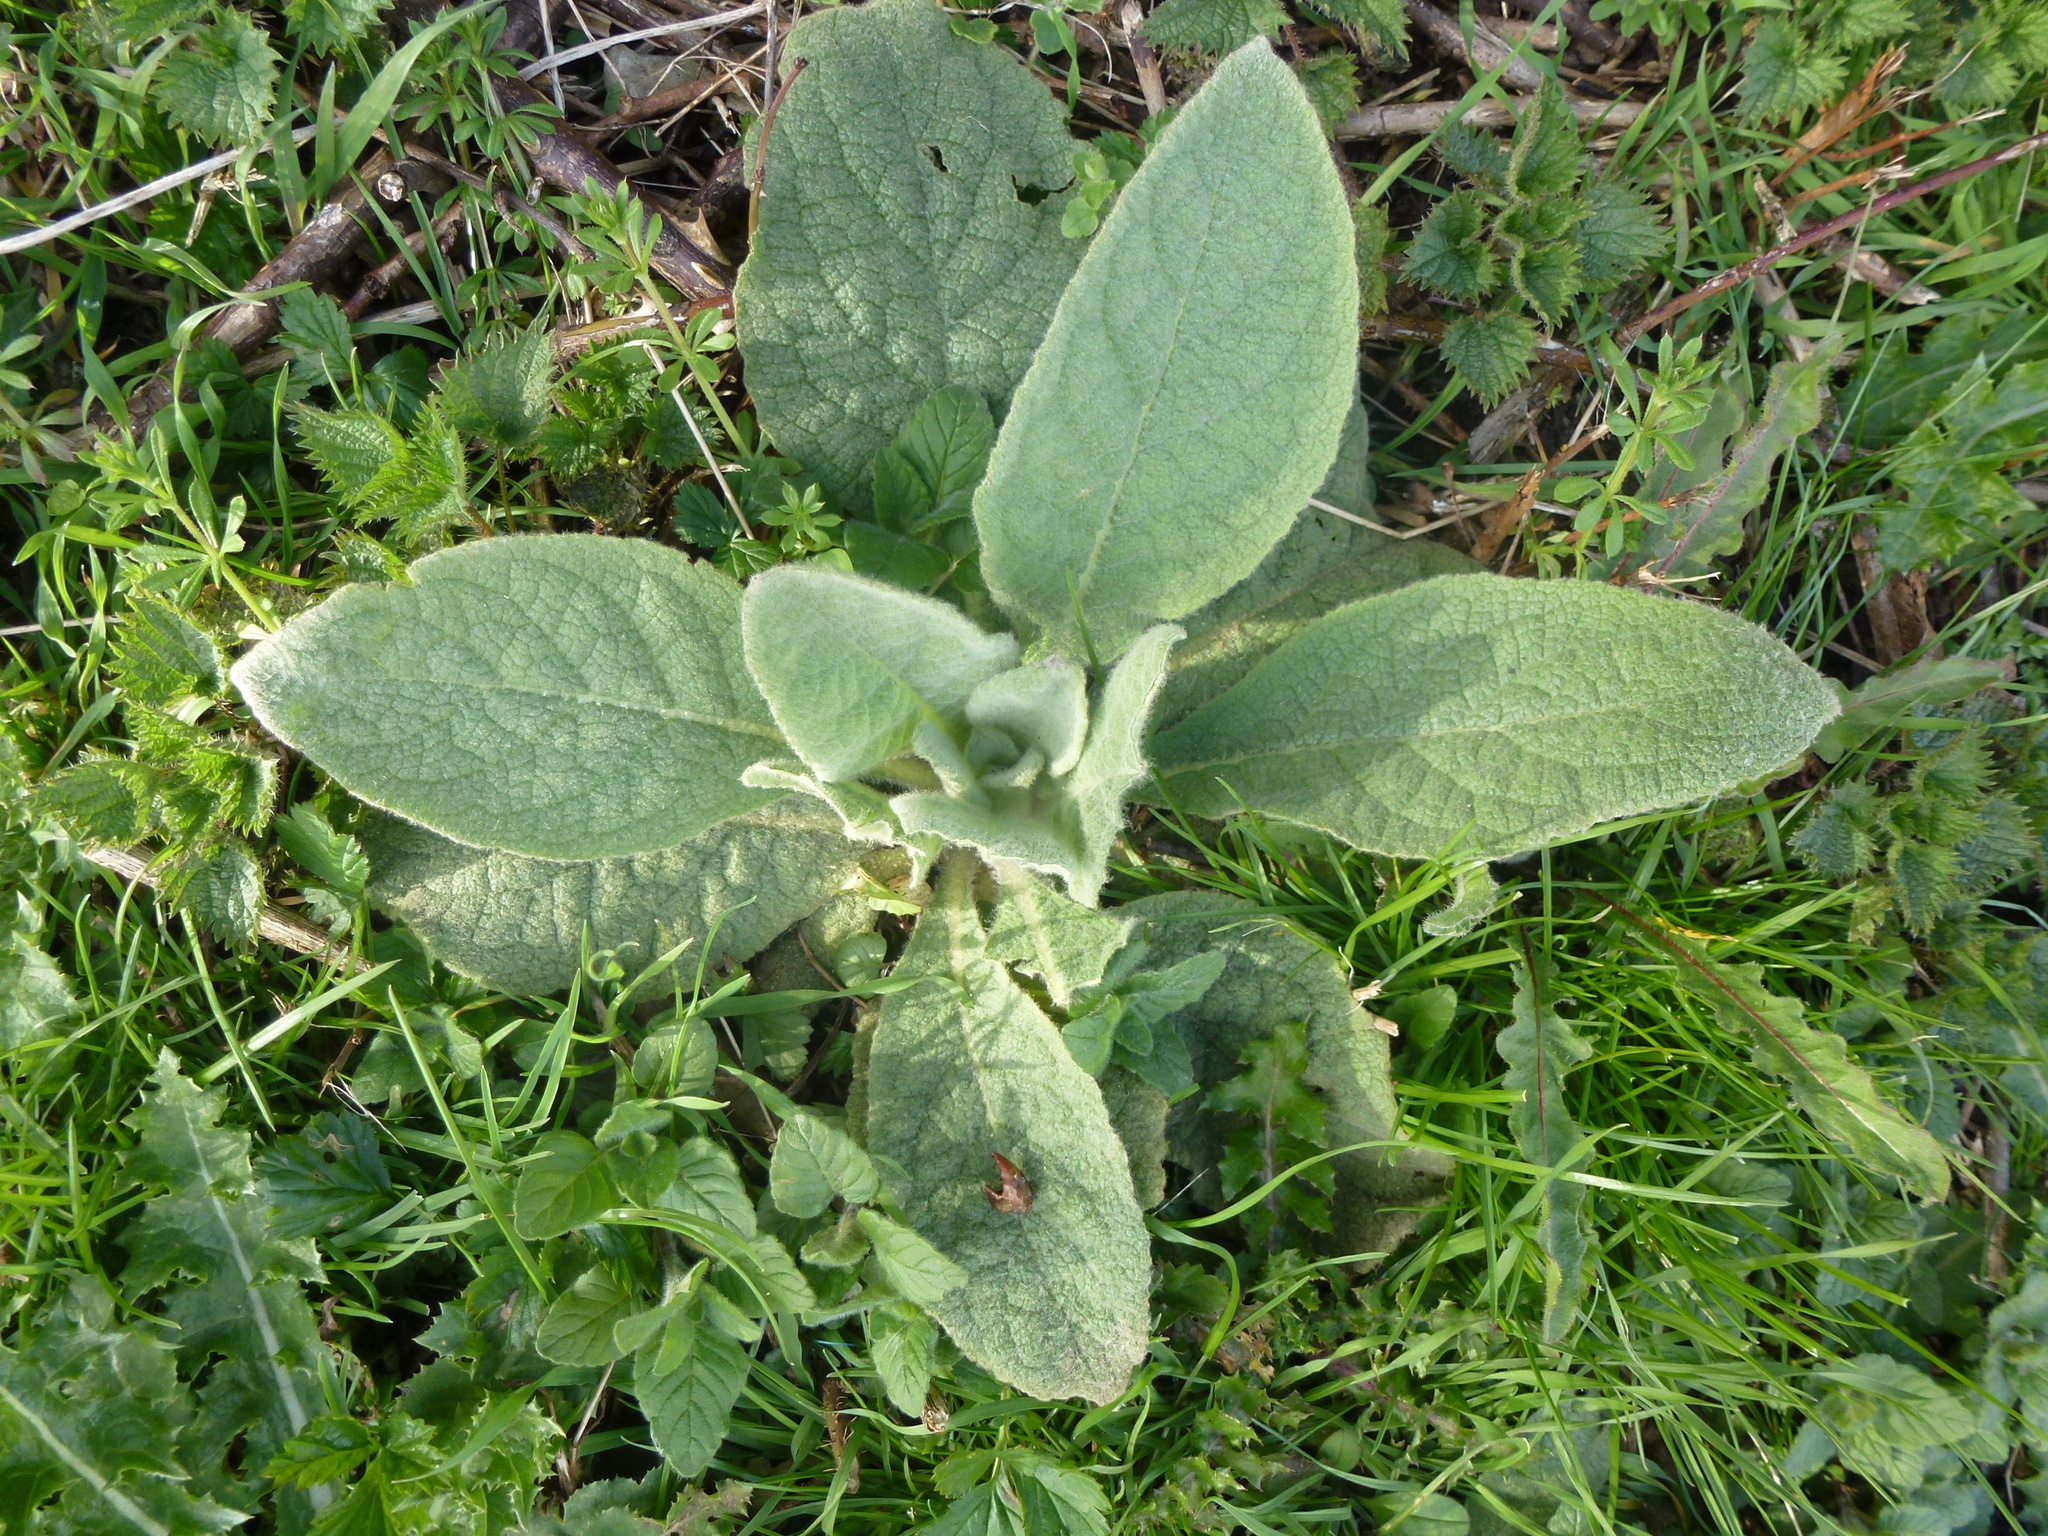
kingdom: Plantae
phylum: Tracheophyta
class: Magnoliopsida
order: Lamiales
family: Scrophulariaceae
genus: Verbascum
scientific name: Verbascum thapsus
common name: Common mullein
